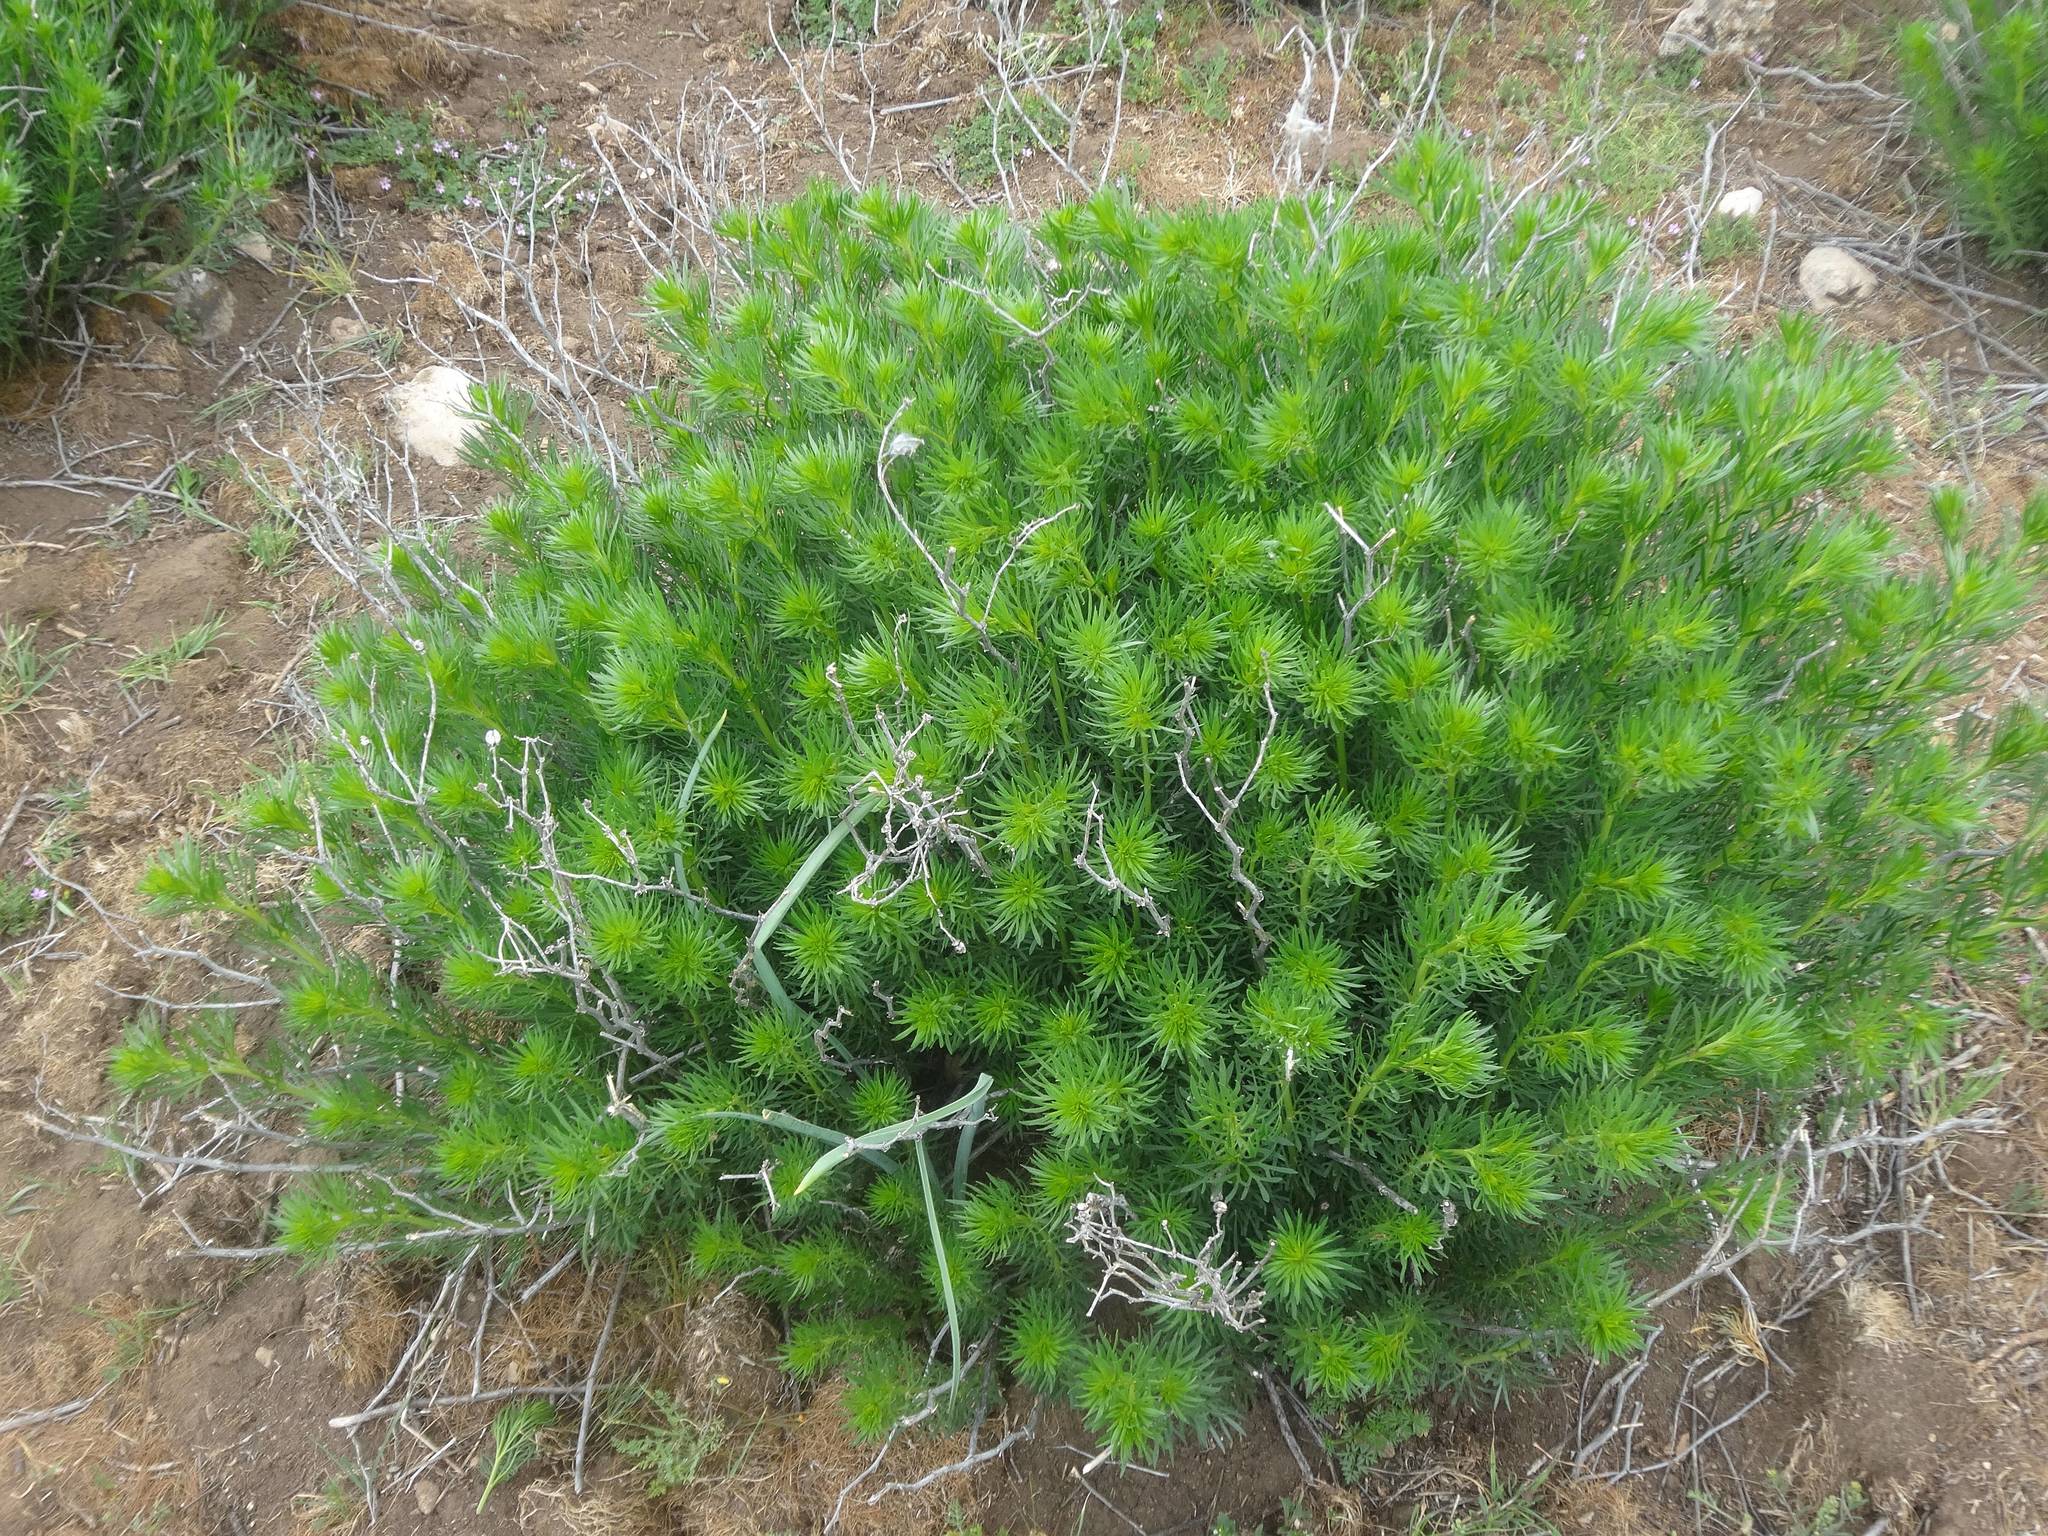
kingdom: Plantae
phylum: Tracheophyta
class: Magnoliopsida
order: Sapindales
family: Tetradiclidaceae
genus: Peganum
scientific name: Peganum harmala
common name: Harmal peganum
